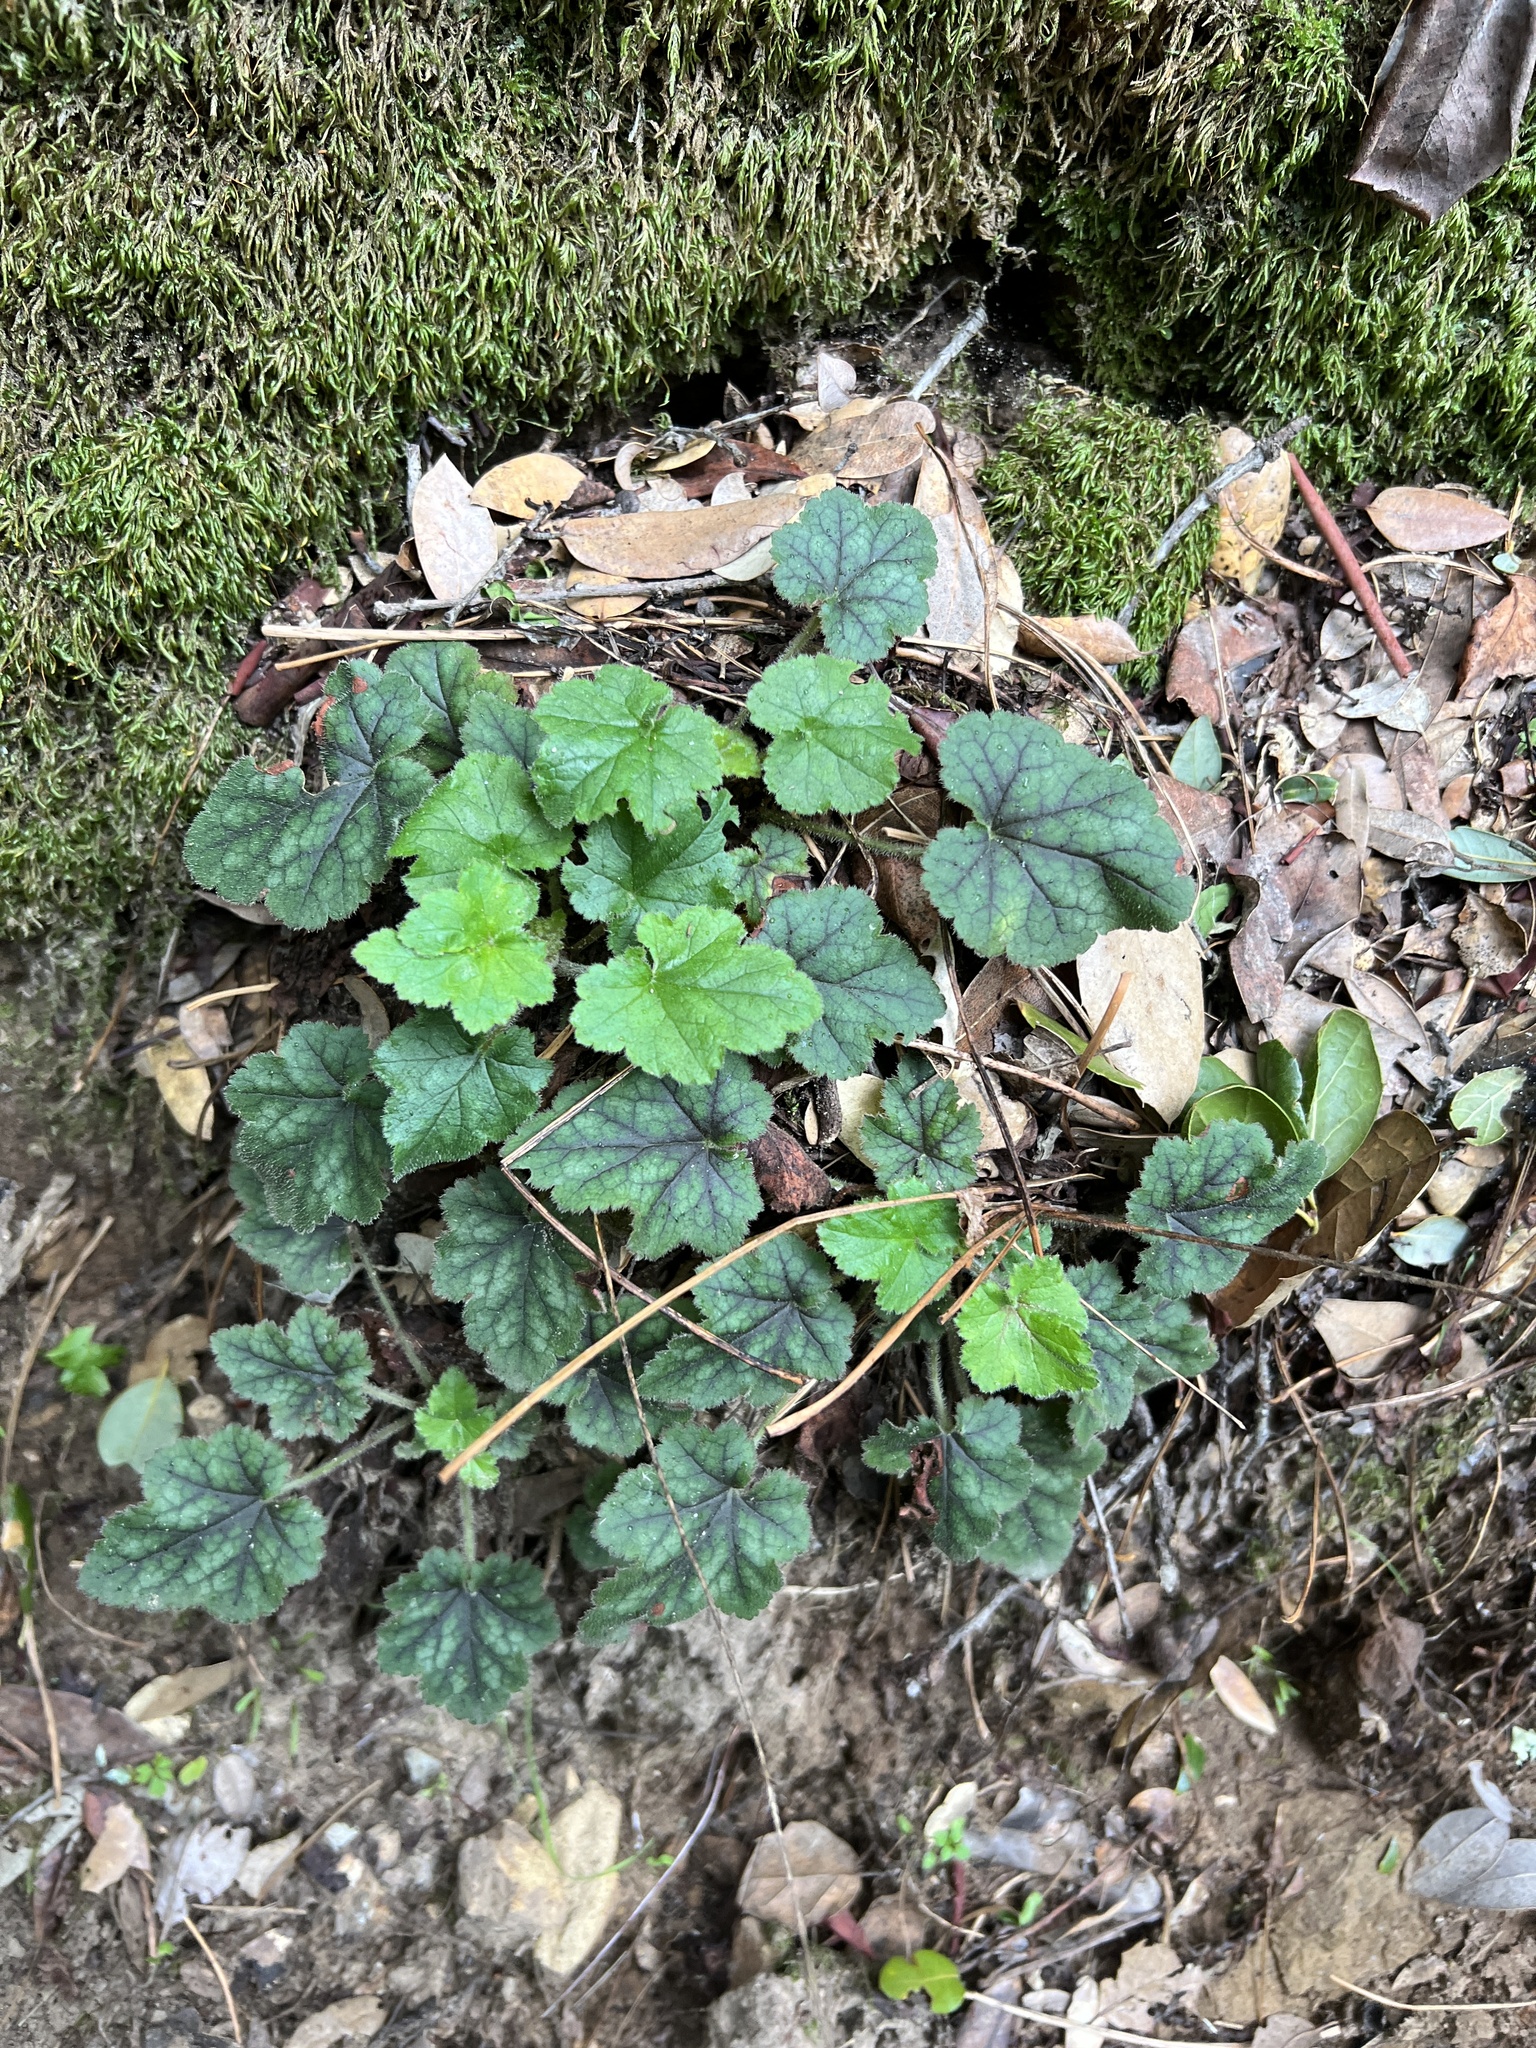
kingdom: Plantae
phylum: Tracheophyta
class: Magnoliopsida
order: Saxifragales
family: Saxifragaceae
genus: Heuchera
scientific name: Heuchera micrantha
